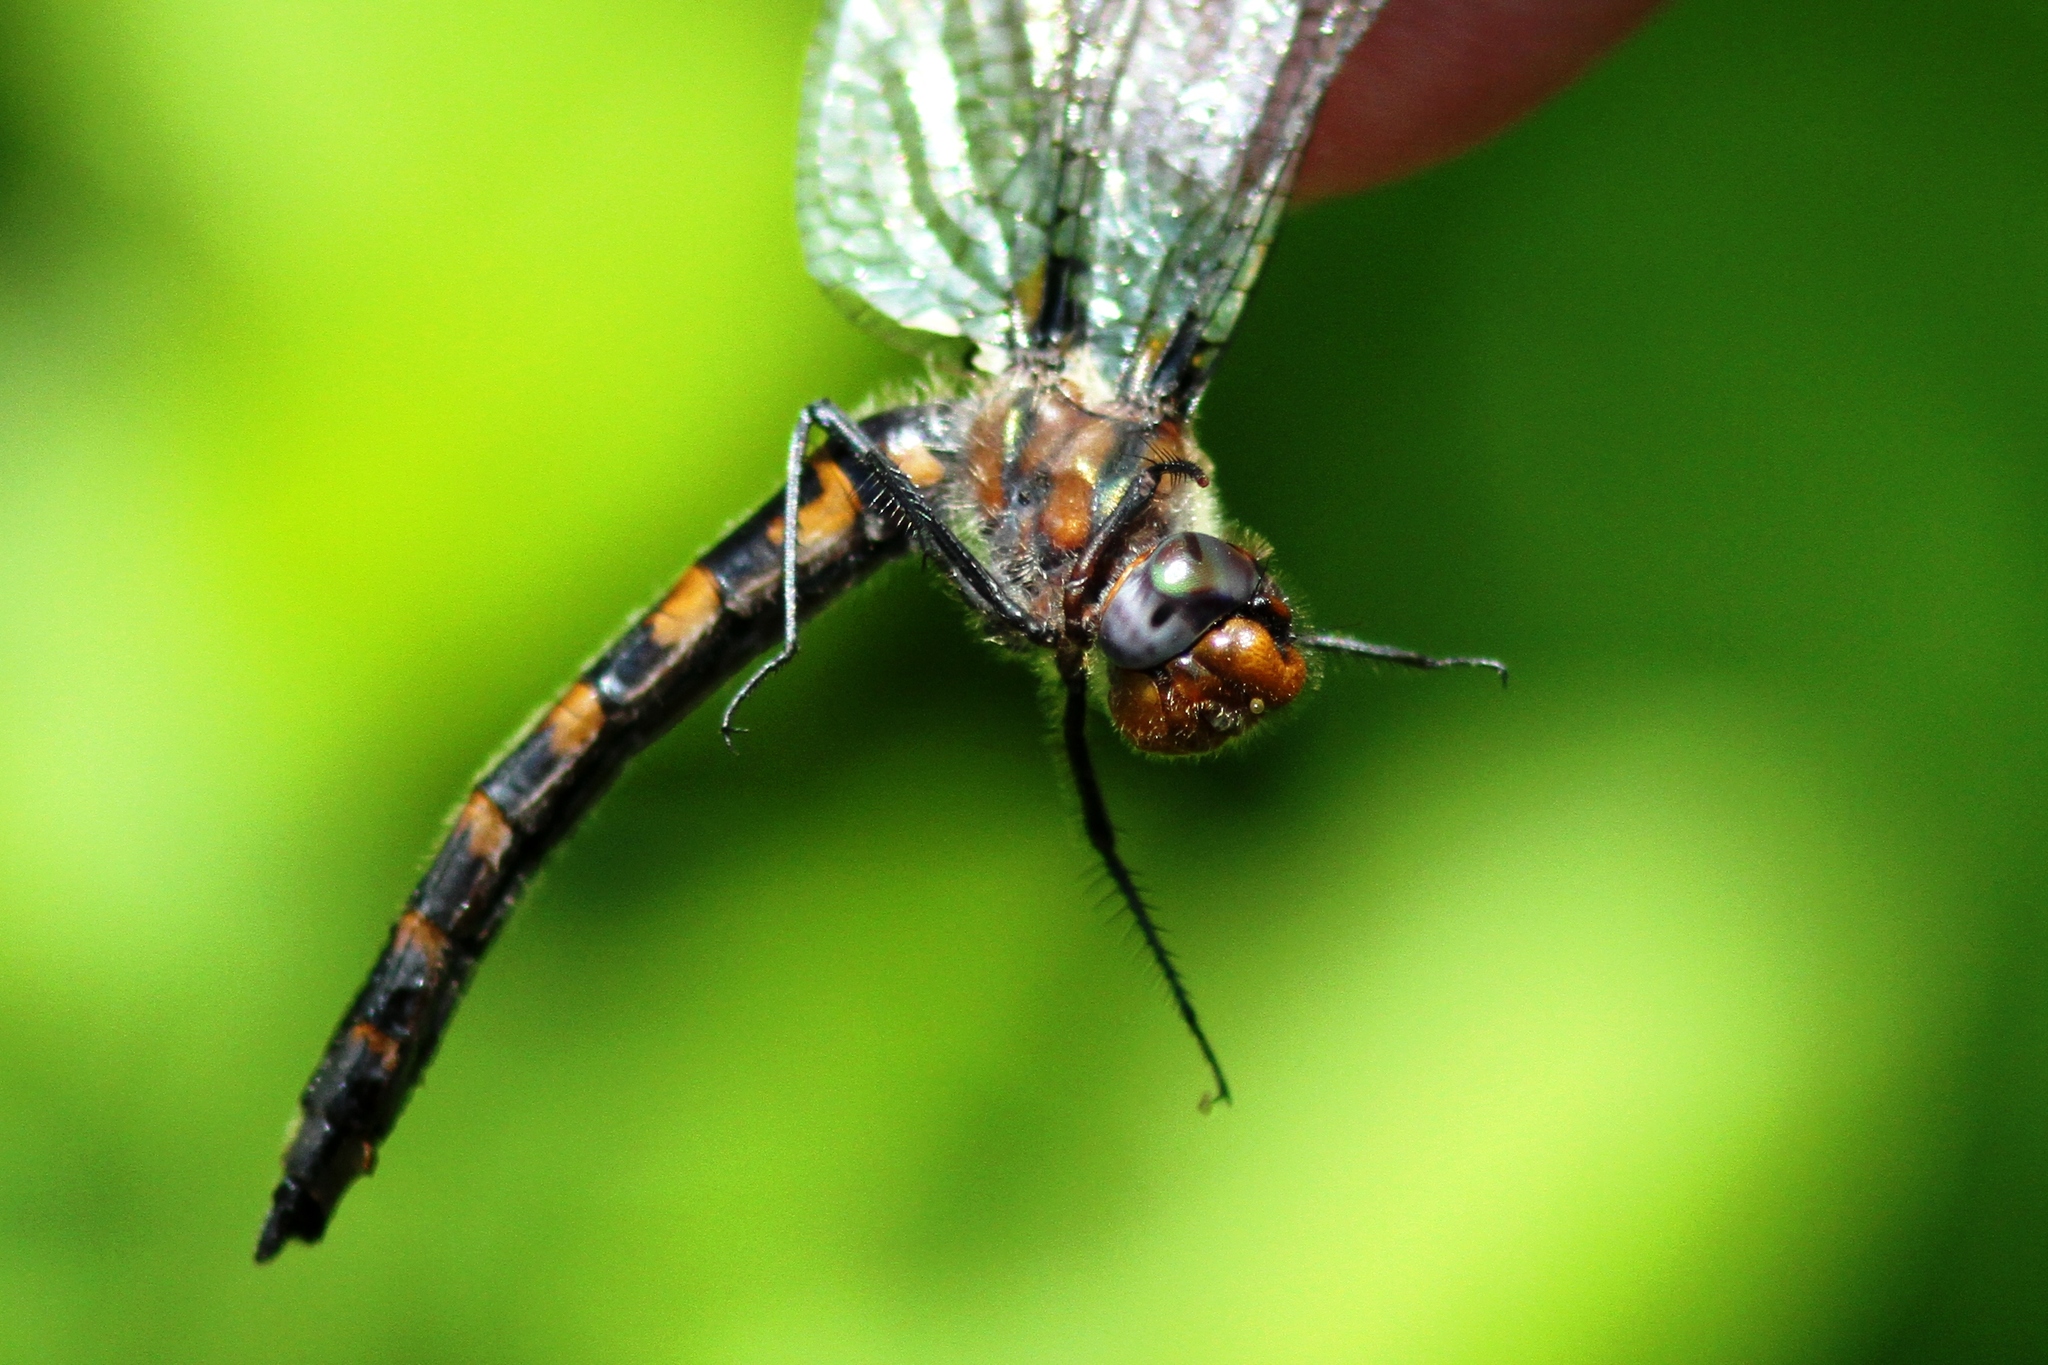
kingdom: Animalia
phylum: Arthropoda
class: Insecta
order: Odonata
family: Corduliidae
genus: Helocordulia
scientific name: Helocordulia uhleri
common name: Uhler's sundragon
